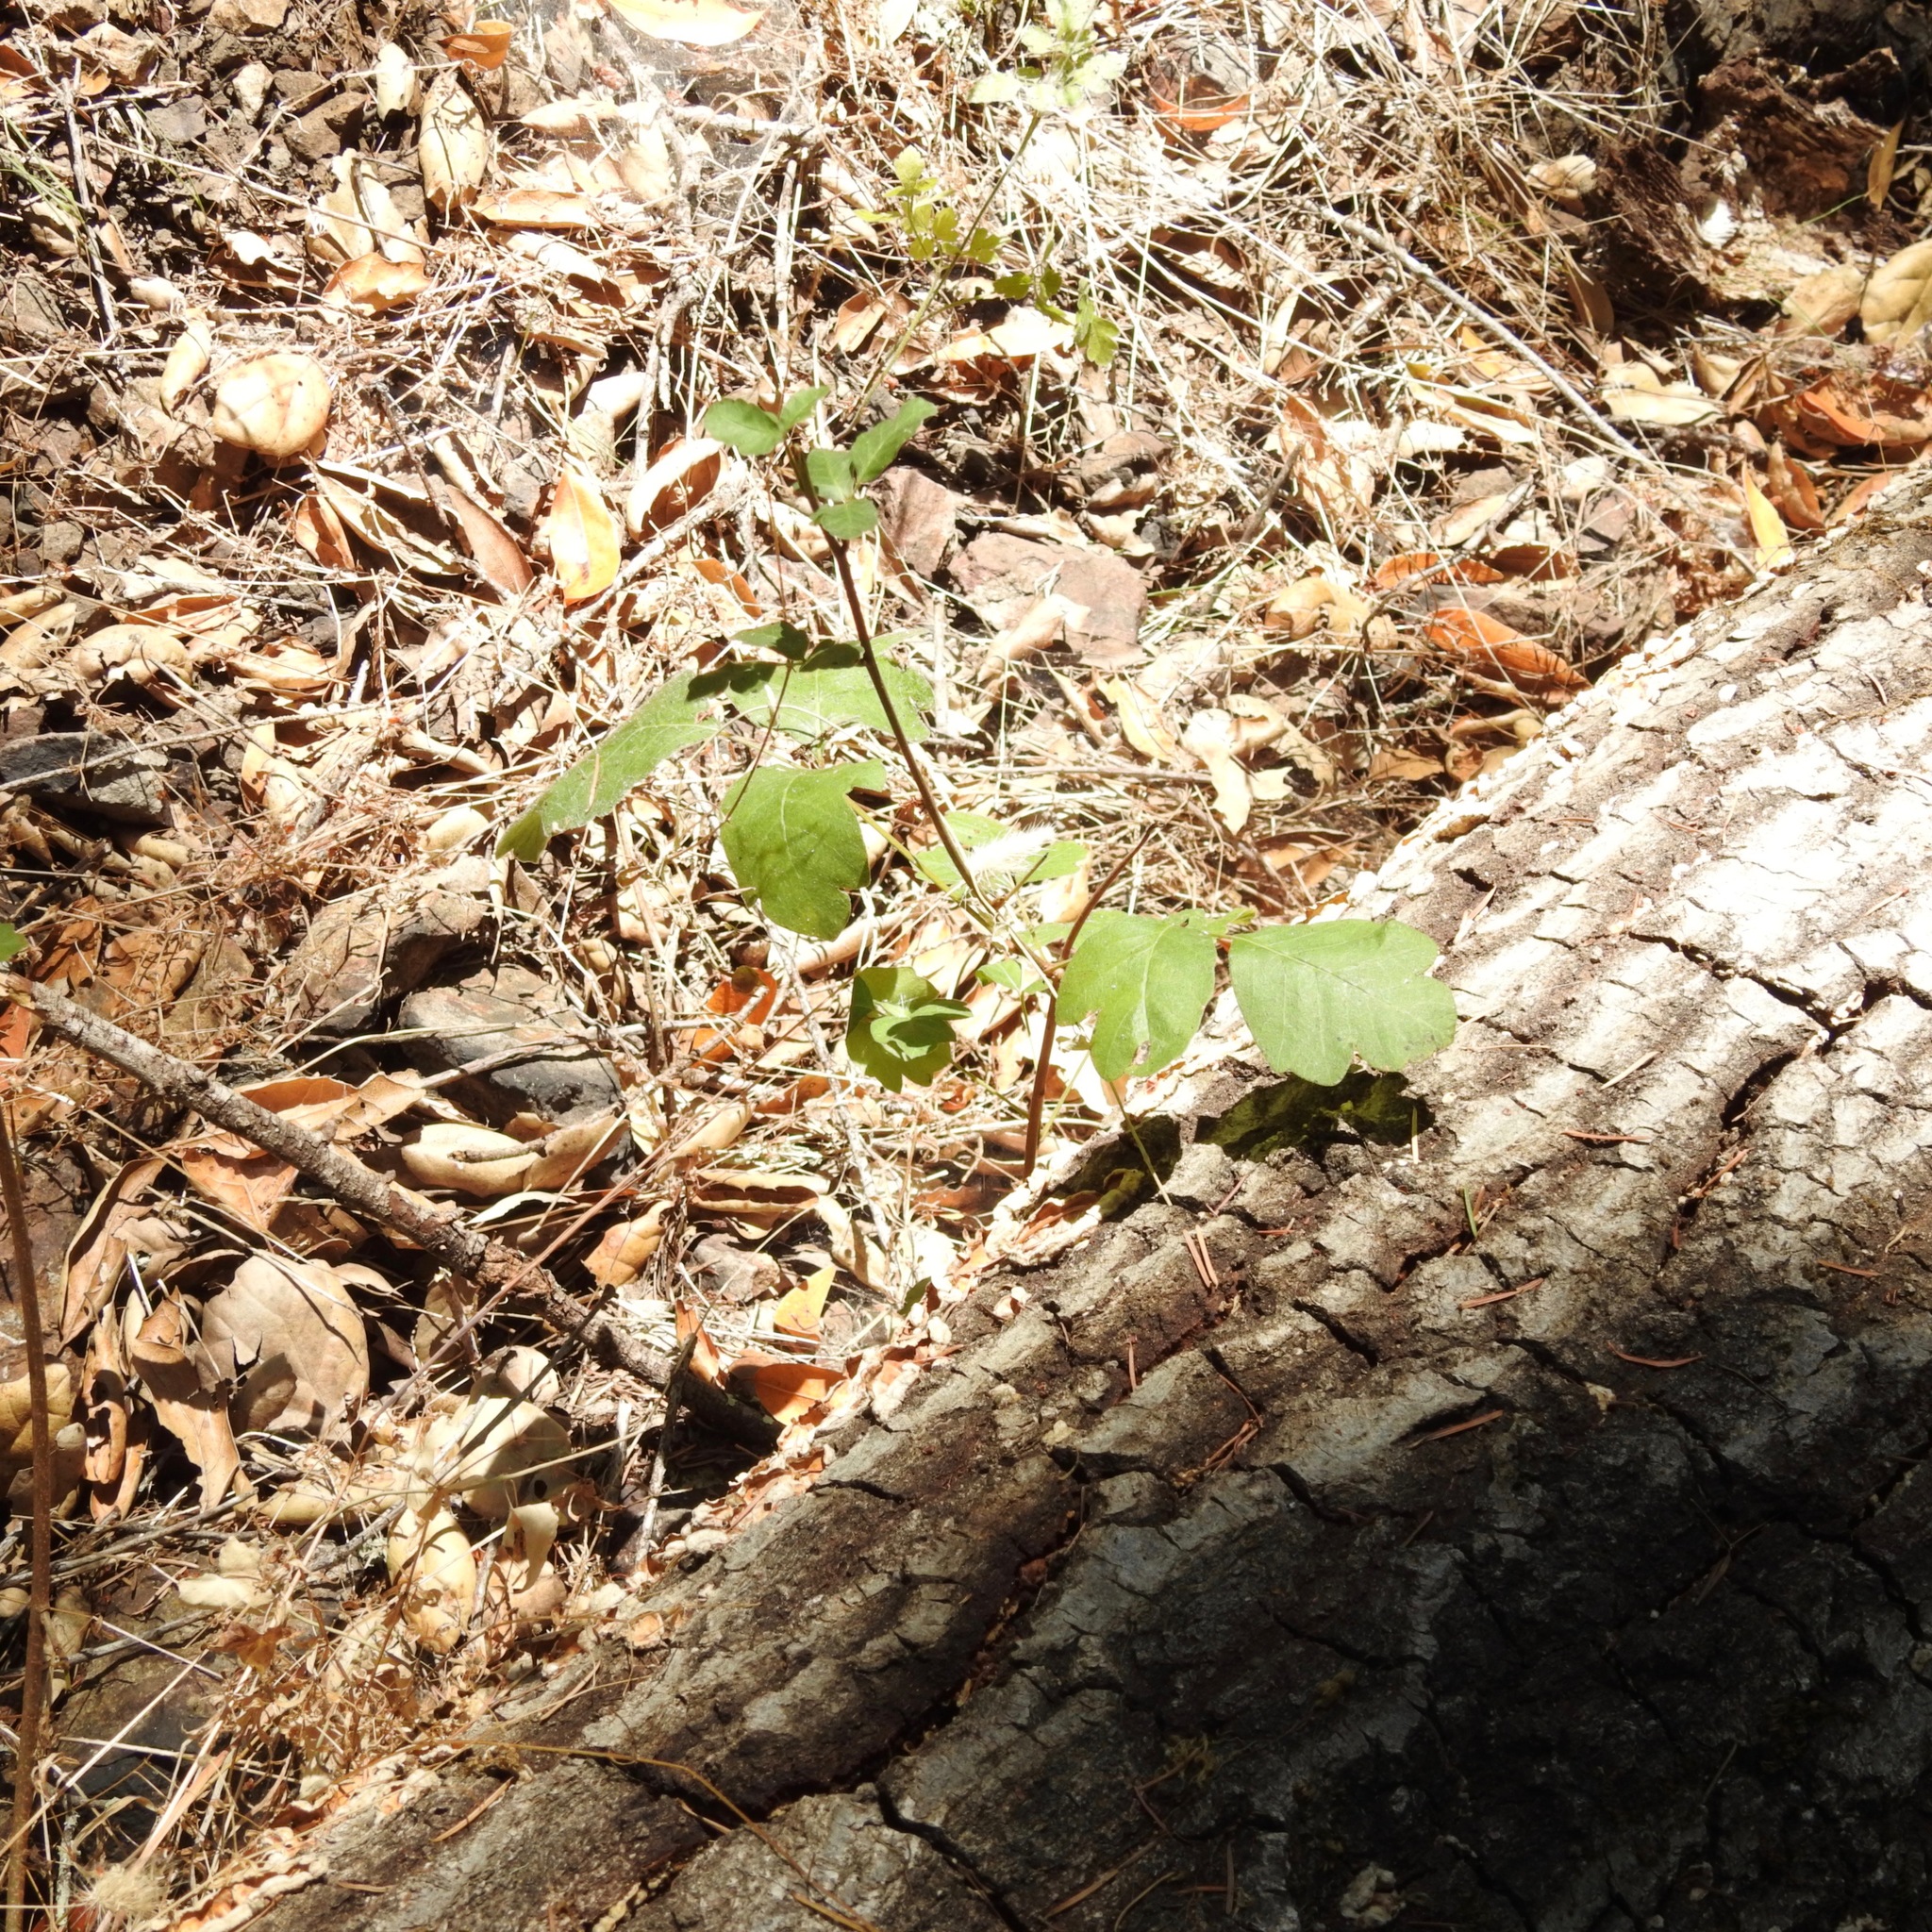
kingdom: Plantae
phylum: Tracheophyta
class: Magnoliopsida
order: Sapindales
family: Anacardiaceae
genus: Toxicodendron
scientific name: Toxicodendron diversilobum
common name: Pacific poison-oak
